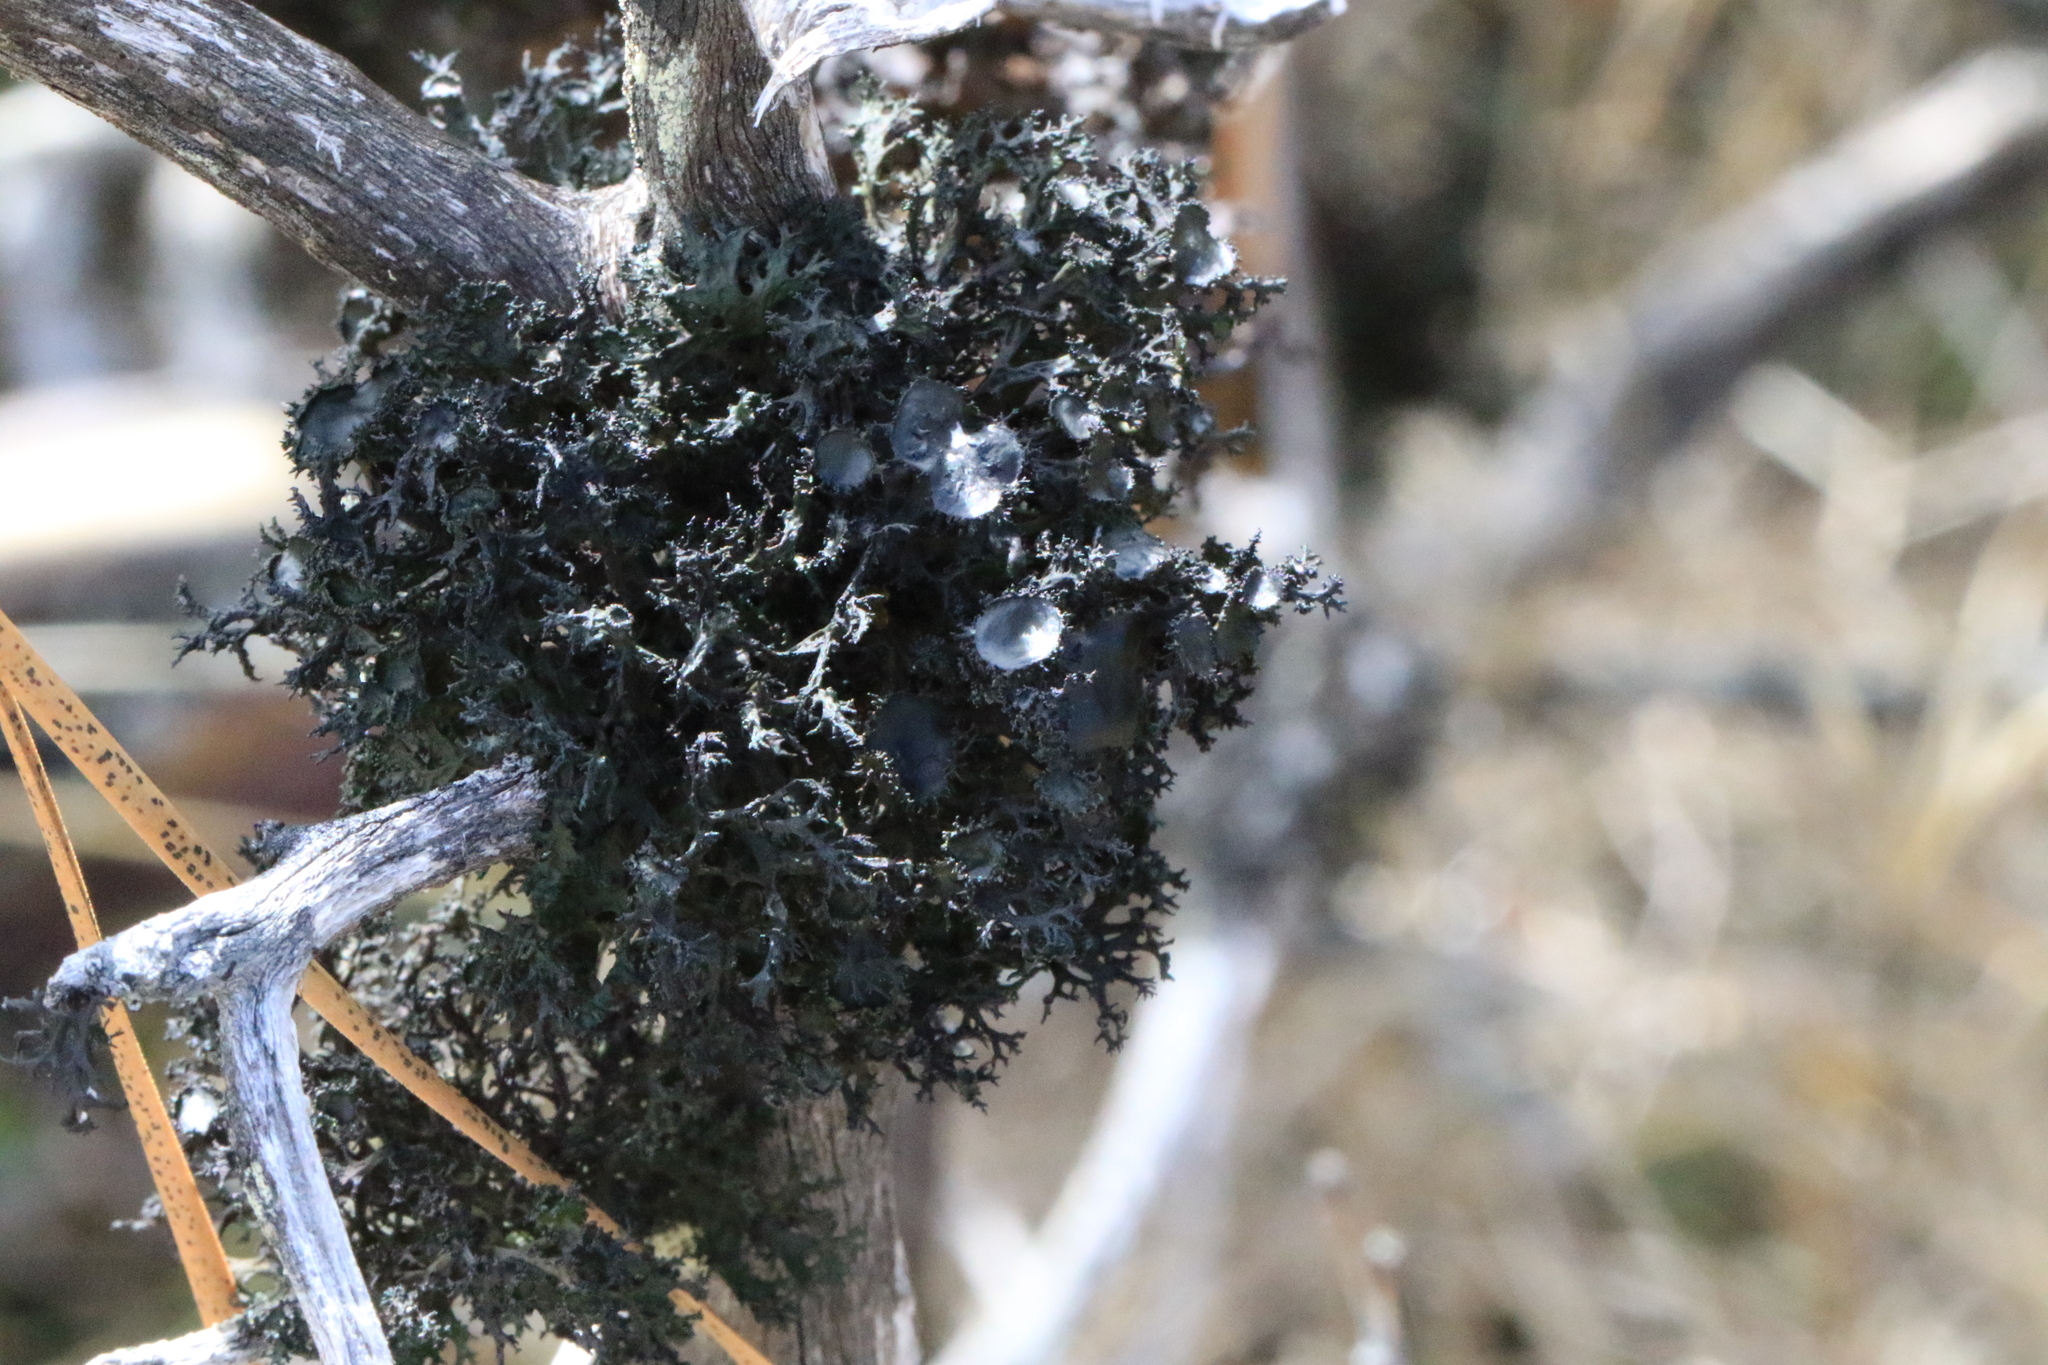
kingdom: Fungi
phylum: Ascomycota
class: Lecanoromycetes
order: Lecanorales
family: Parmeliaceae
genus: Nephromopsis
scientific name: Nephromopsis merrillii
